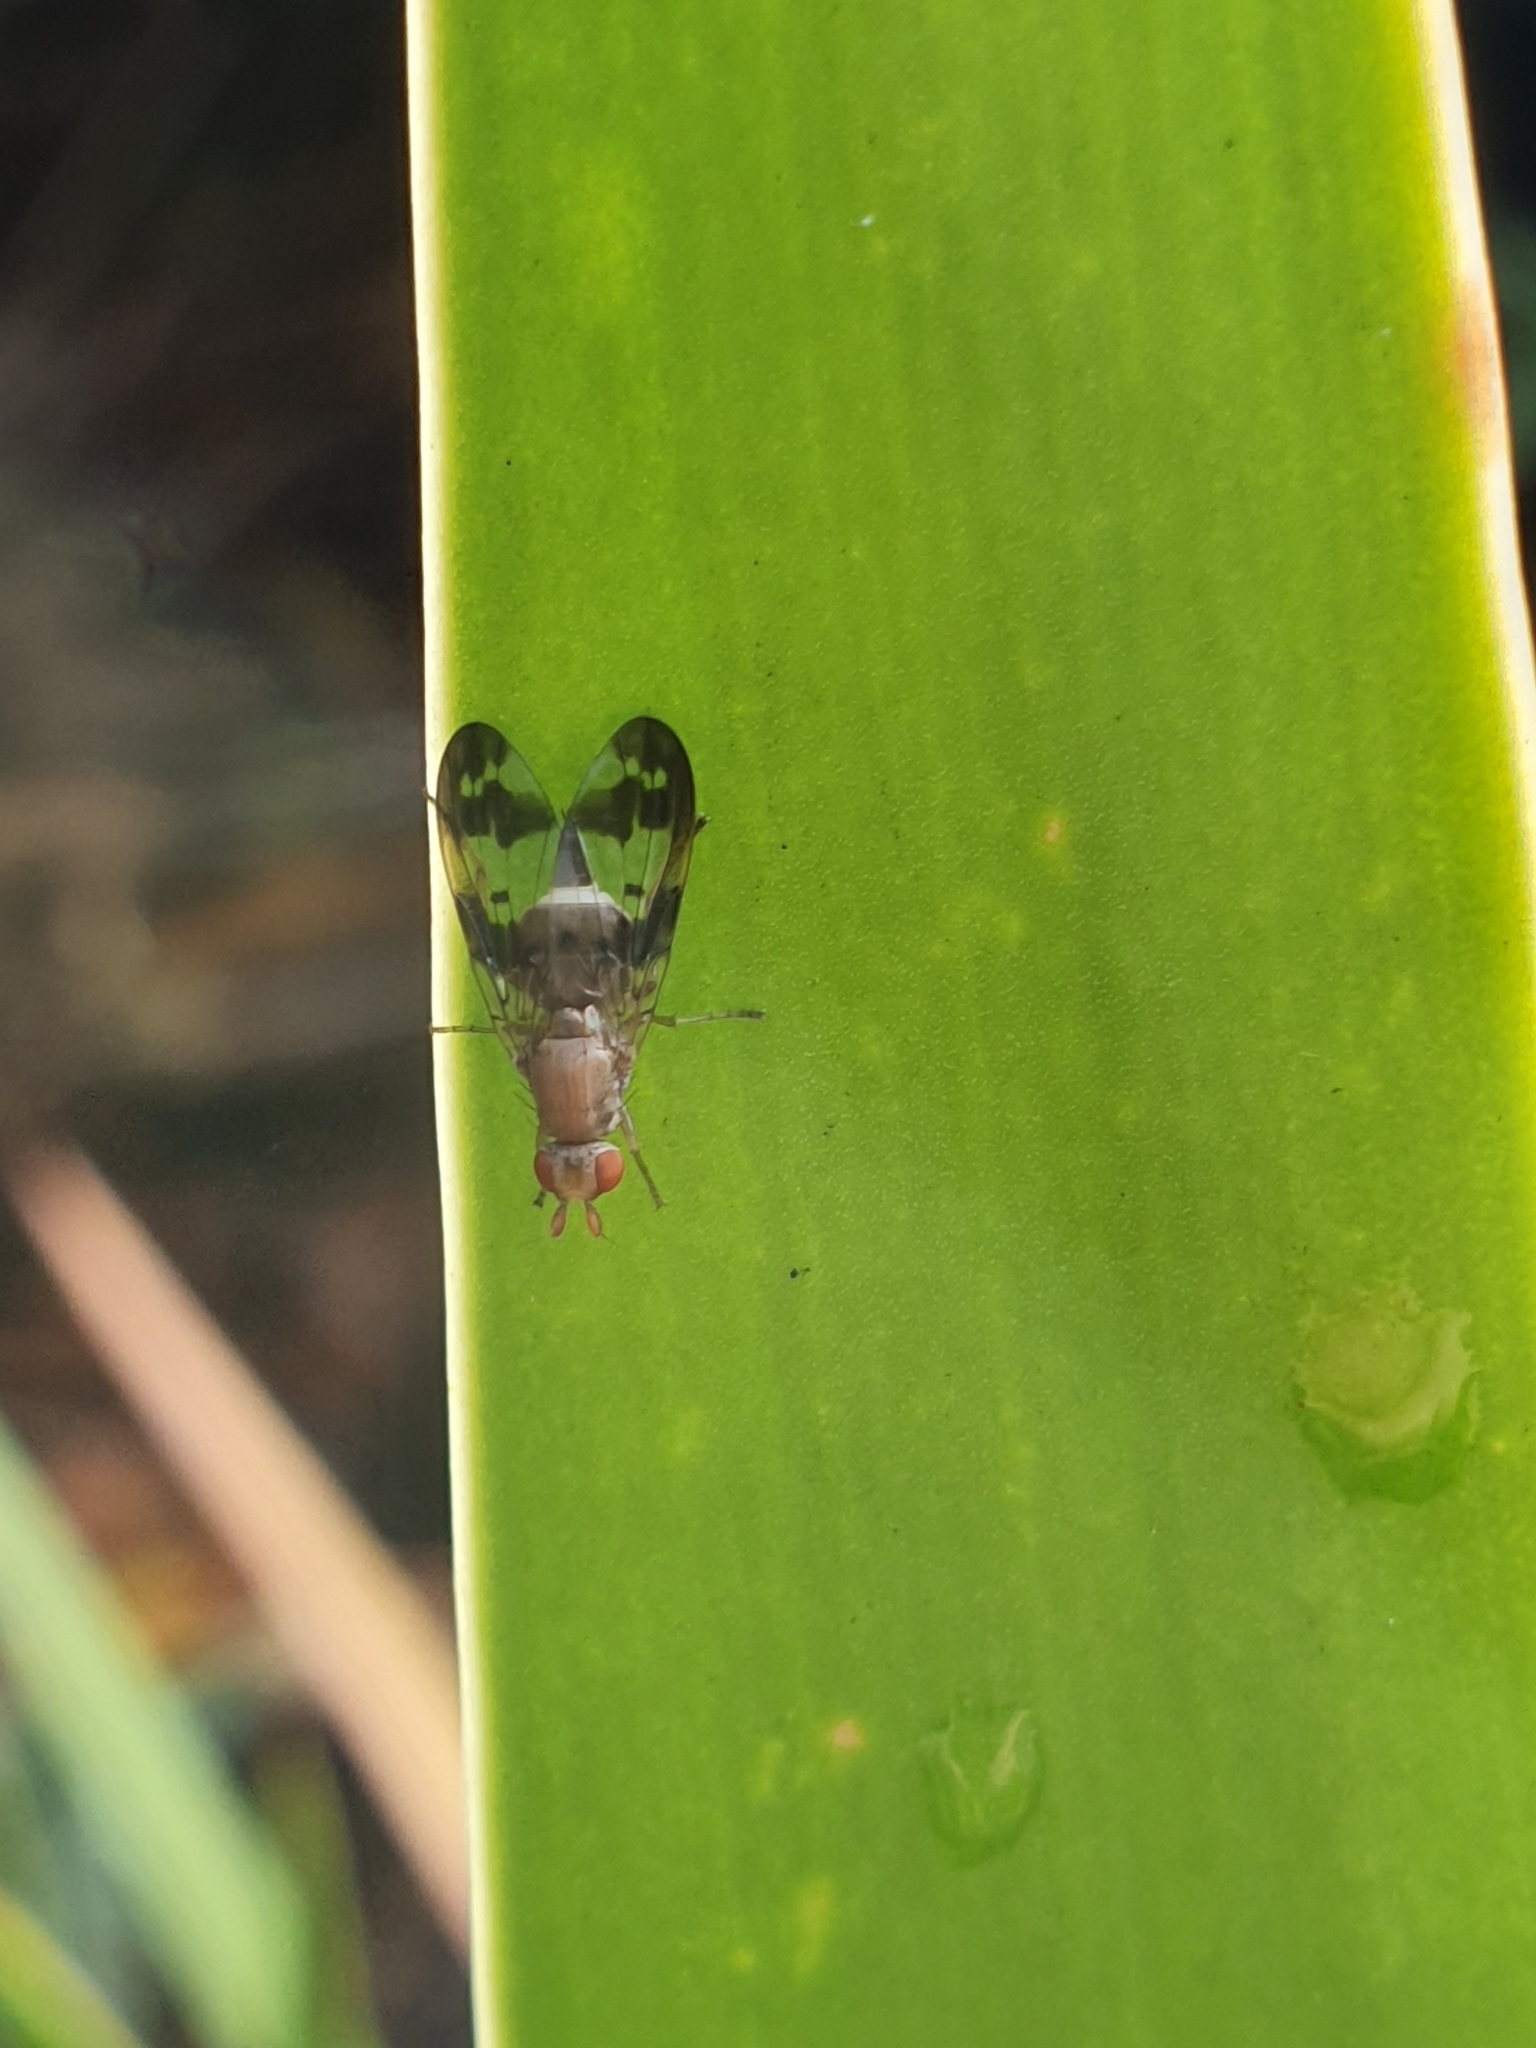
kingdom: Animalia
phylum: Arthropoda
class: Insecta
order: Diptera
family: Sciomyzidae
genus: Prosochaeta
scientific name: Prosochaeta prima
